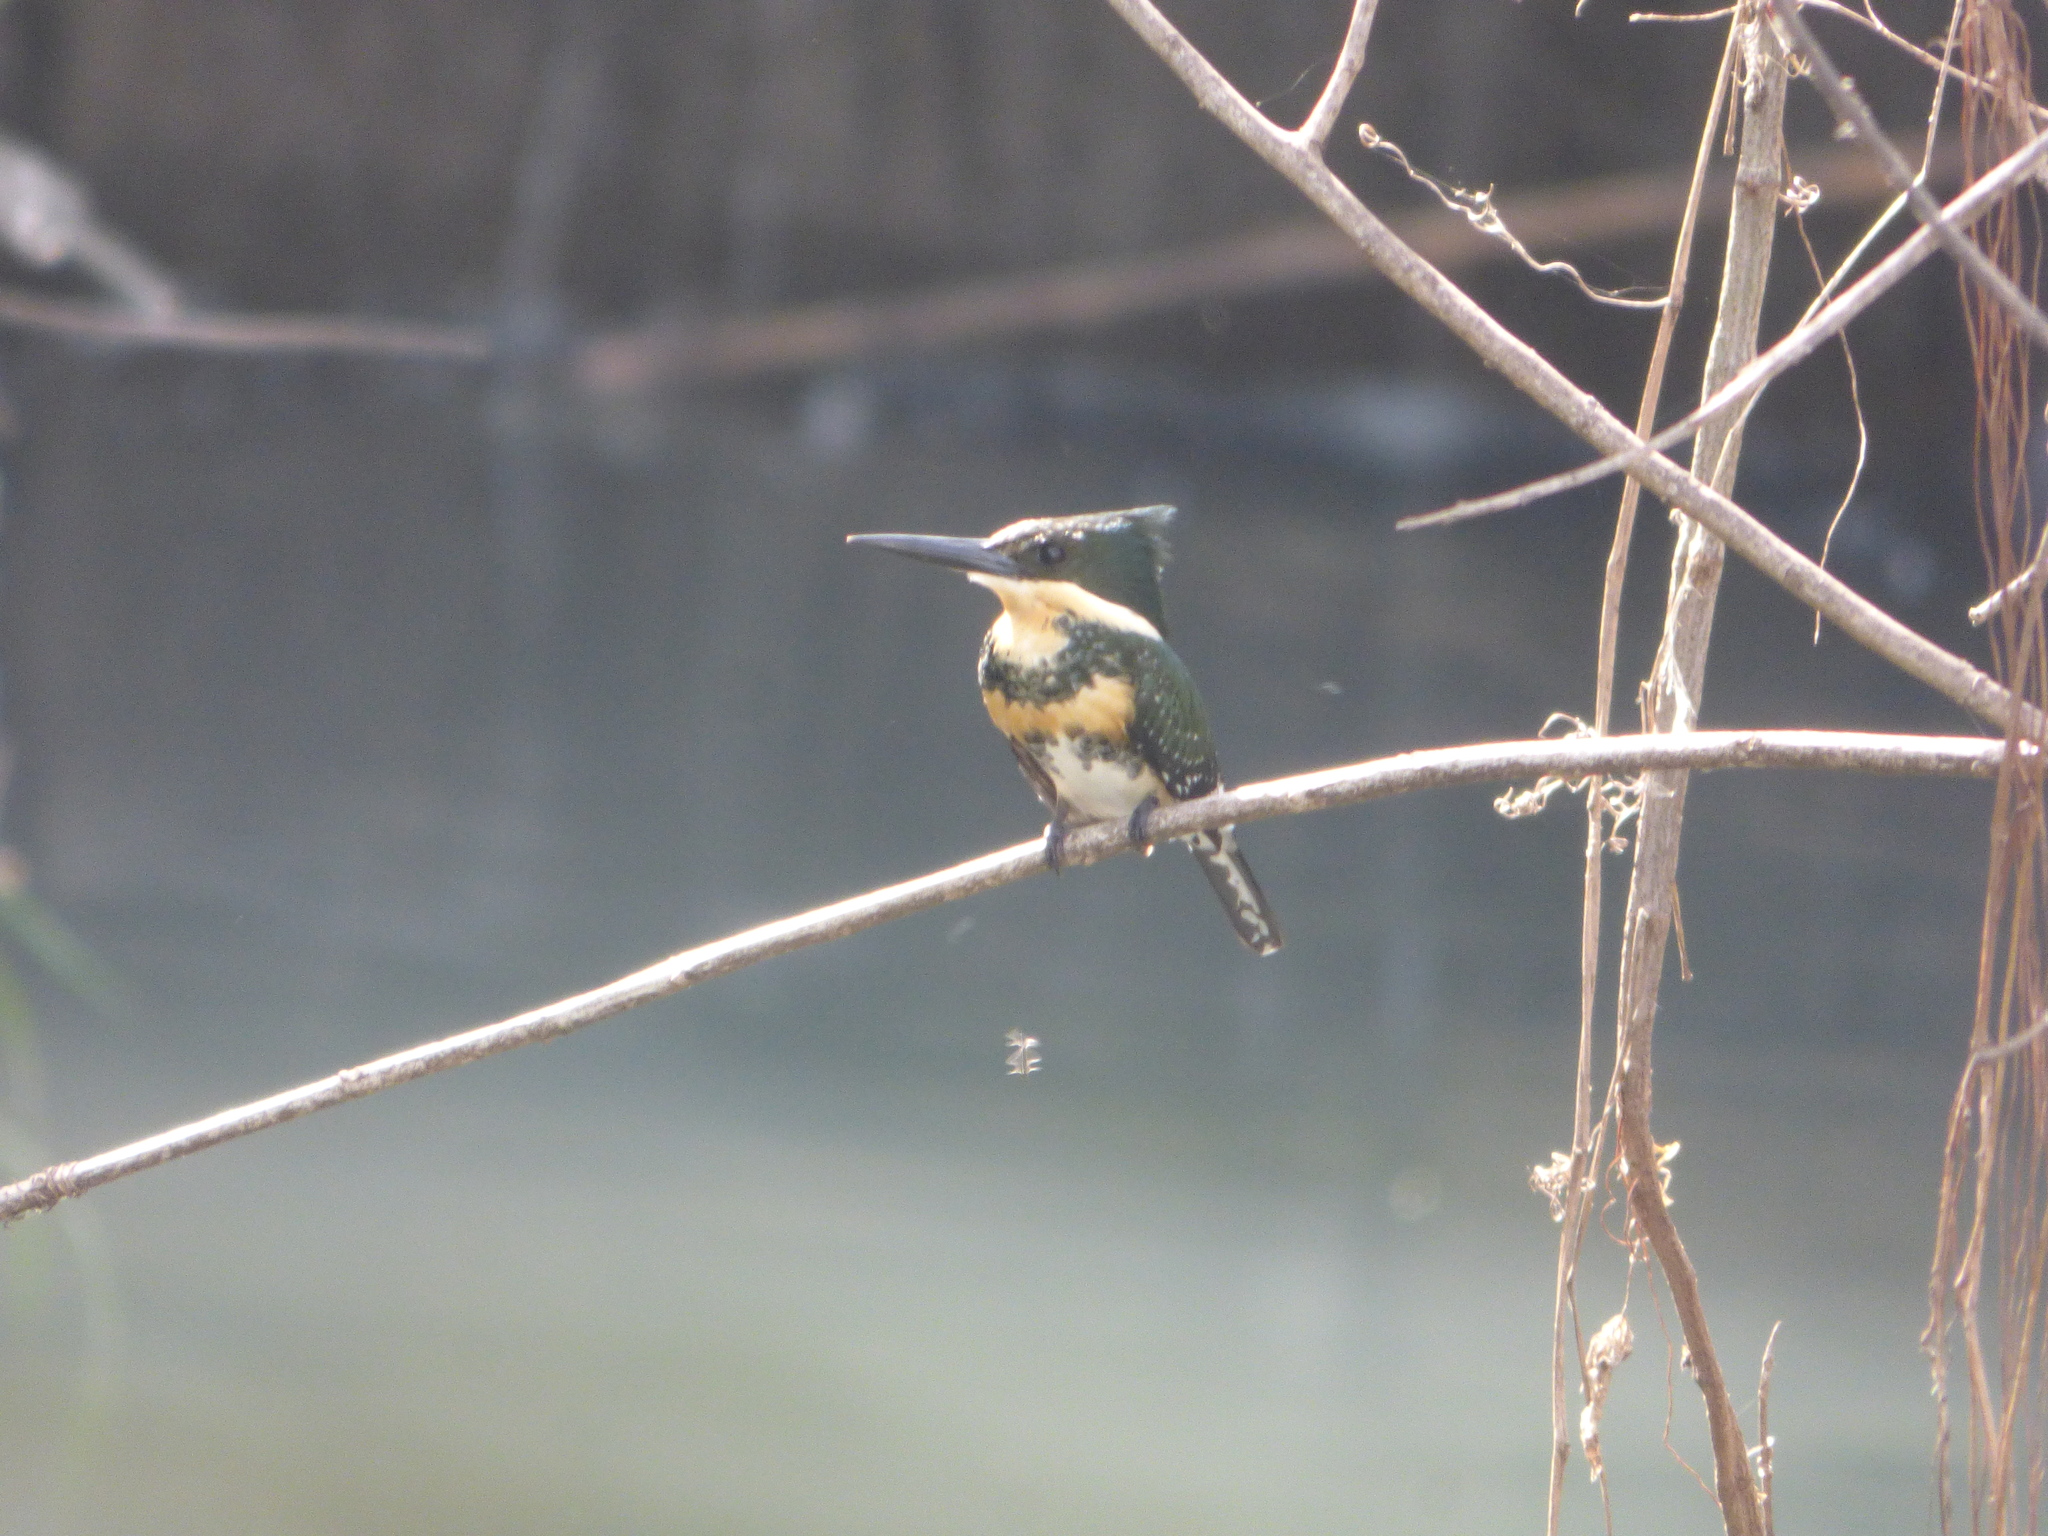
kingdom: Animalia
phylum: Chordata
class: Aves
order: Coraciiformes
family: Alcedinidae
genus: Chloroceryle
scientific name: Chloroceryle americana
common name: Green kingfisher
